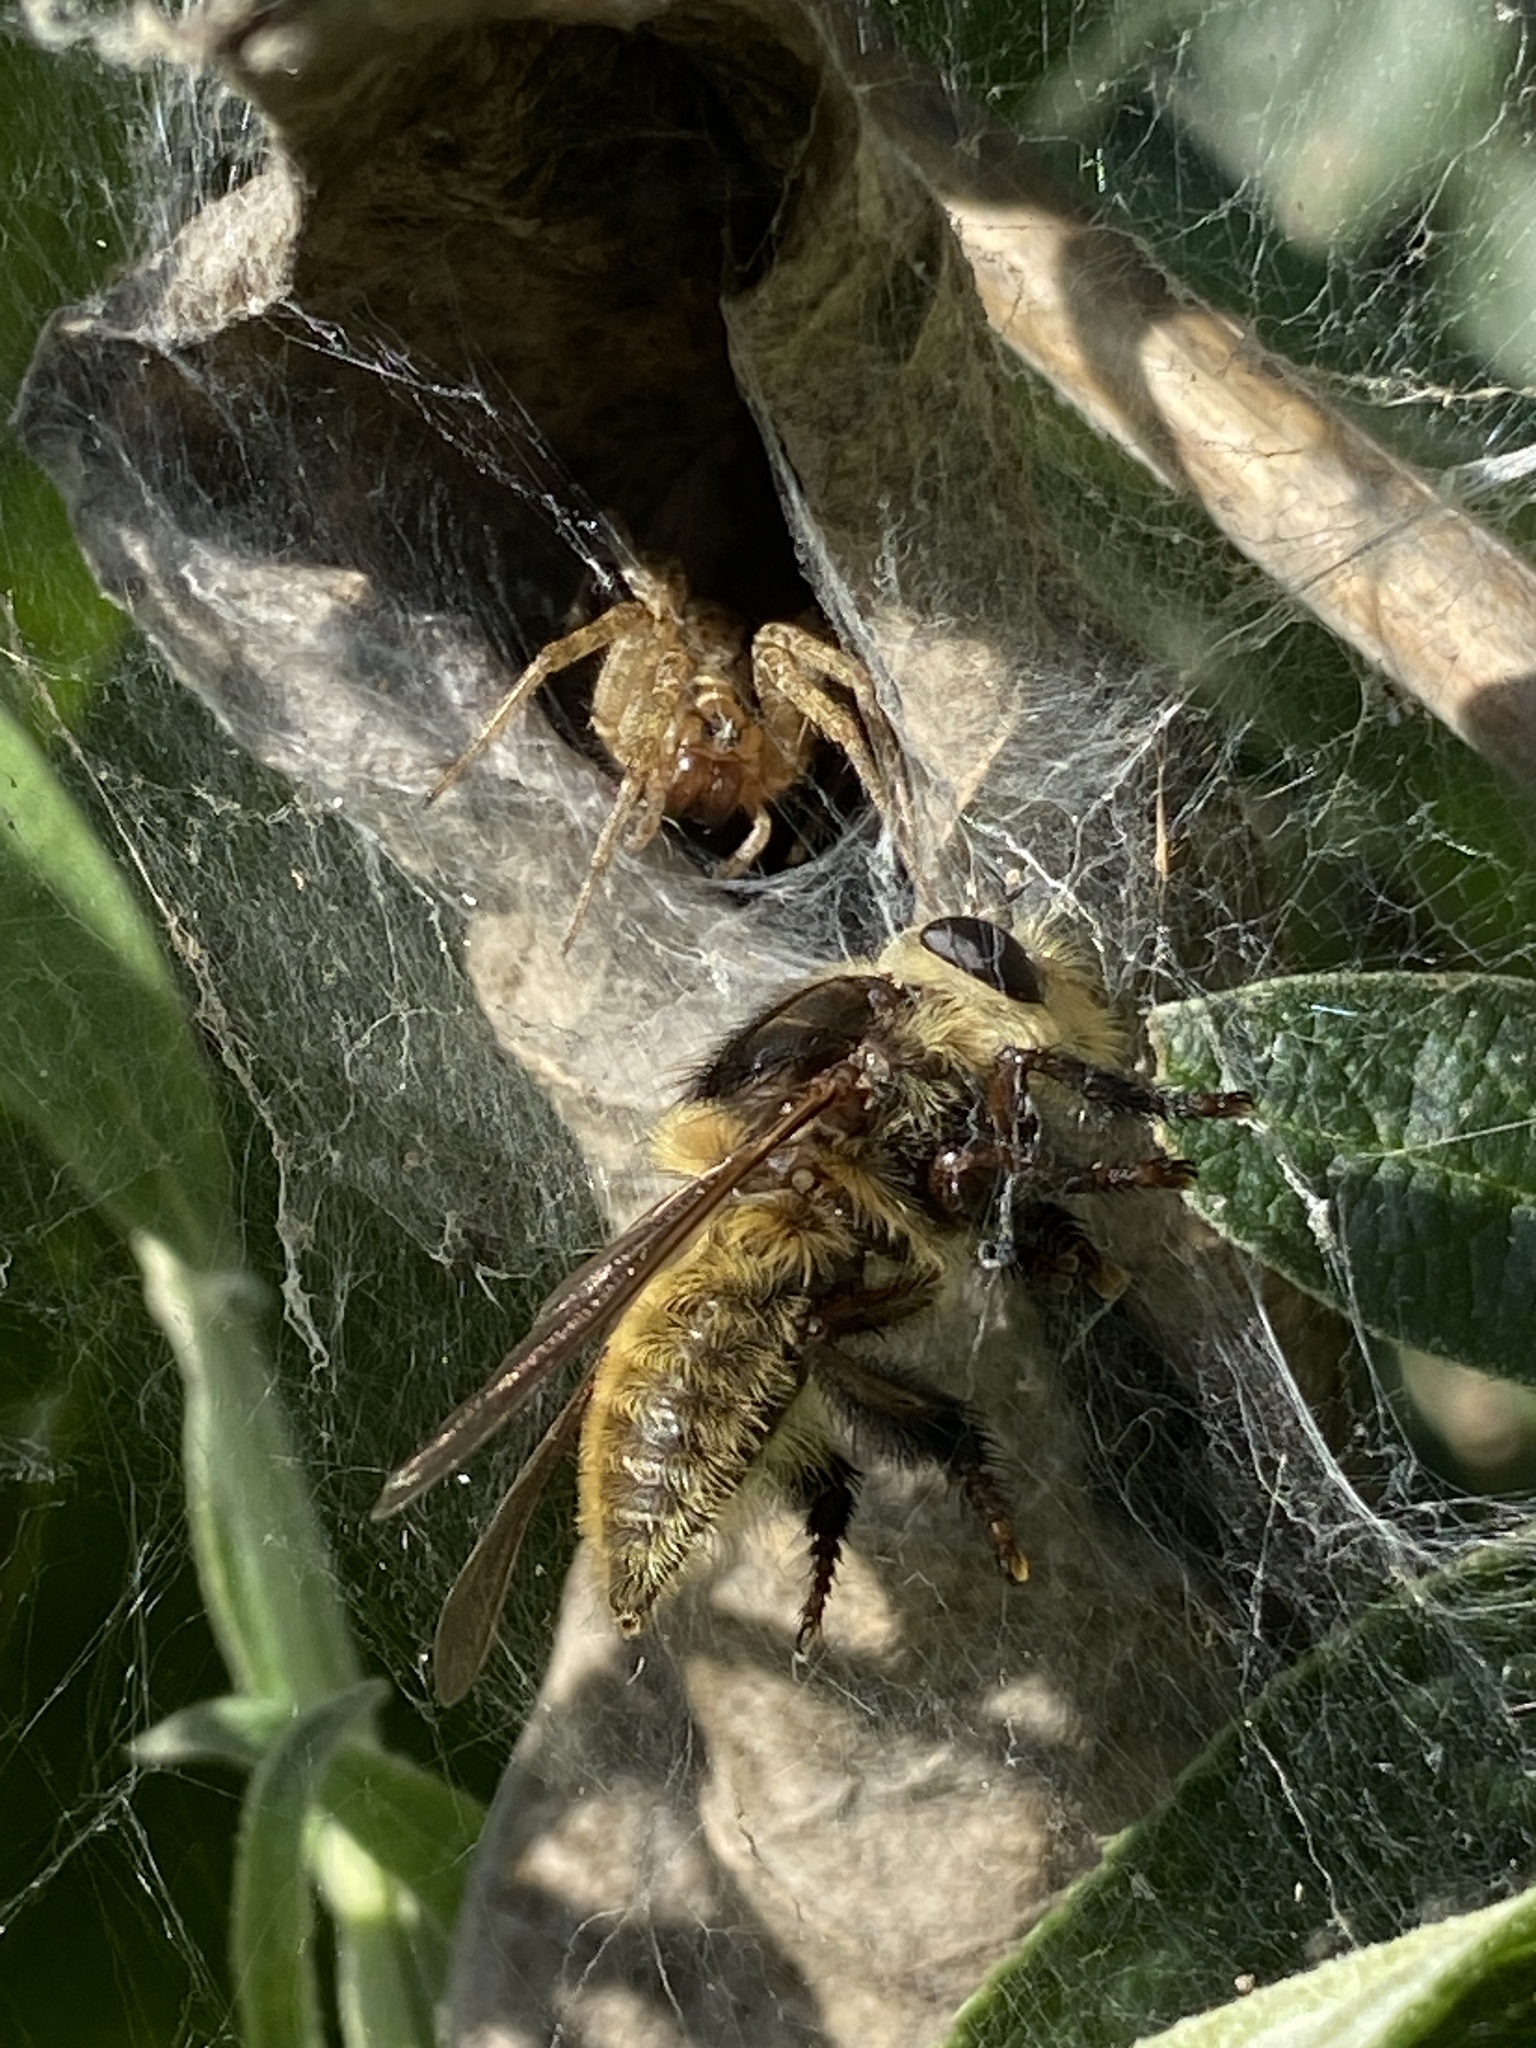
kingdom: Animalia
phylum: Arthropoda
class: Insecta
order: Diptera
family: Asilidae
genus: Mallophora
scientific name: Mallophora fautrix
